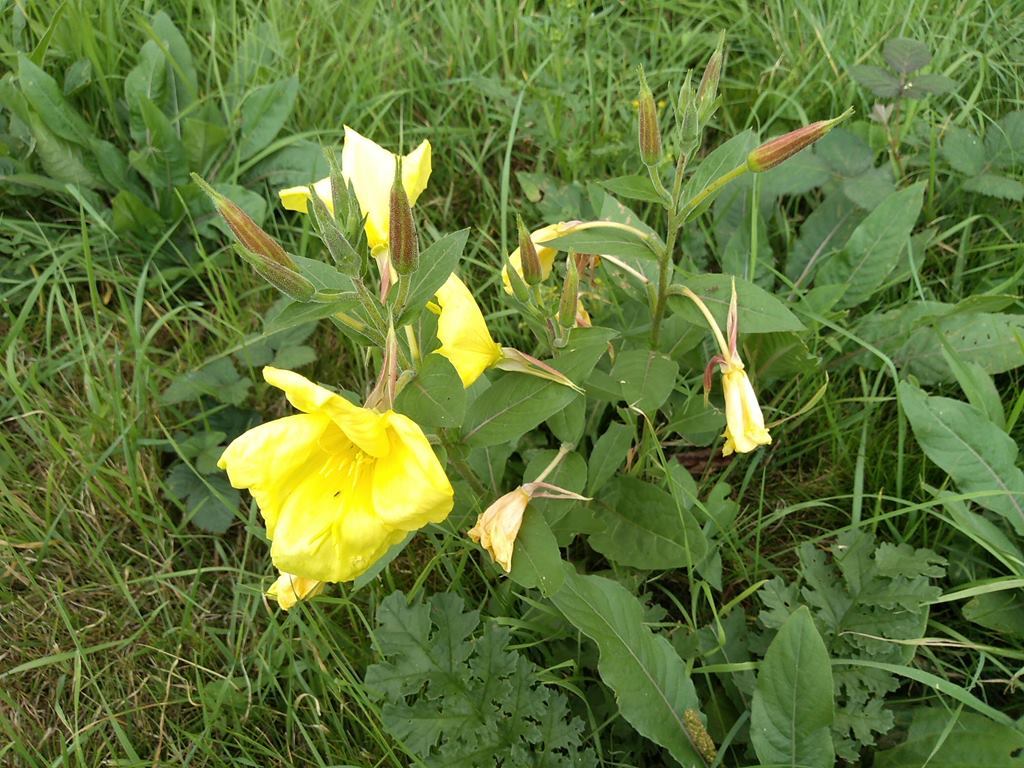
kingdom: Plantae
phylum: Tracheophyta
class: Magnoliopsida
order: Myrtales
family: Onagraceae
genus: Oenothera
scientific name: Oenothera glazioviana
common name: Large-flowered evening-primrose
